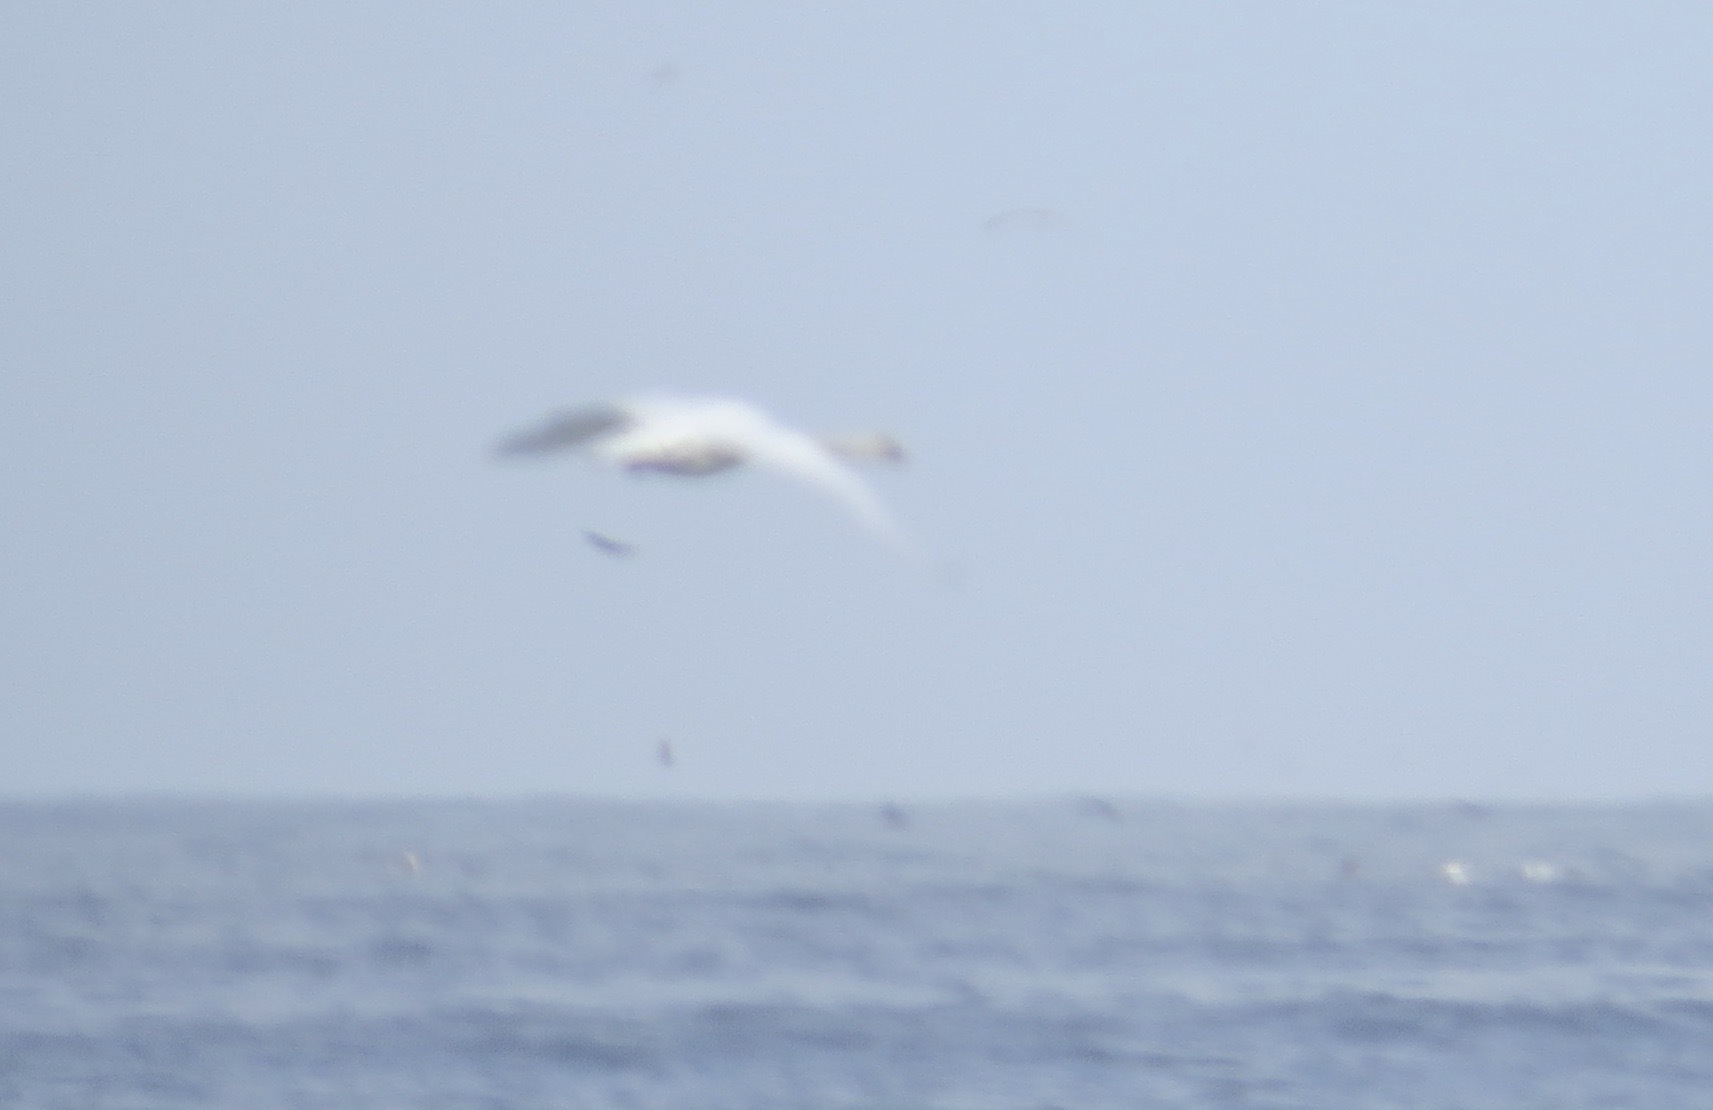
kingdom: Animalia
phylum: Chordata
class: Aves
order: Anseriformes
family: Anatidae
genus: Cygnus
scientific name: Cygnus columbianus
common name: Tundra swan
